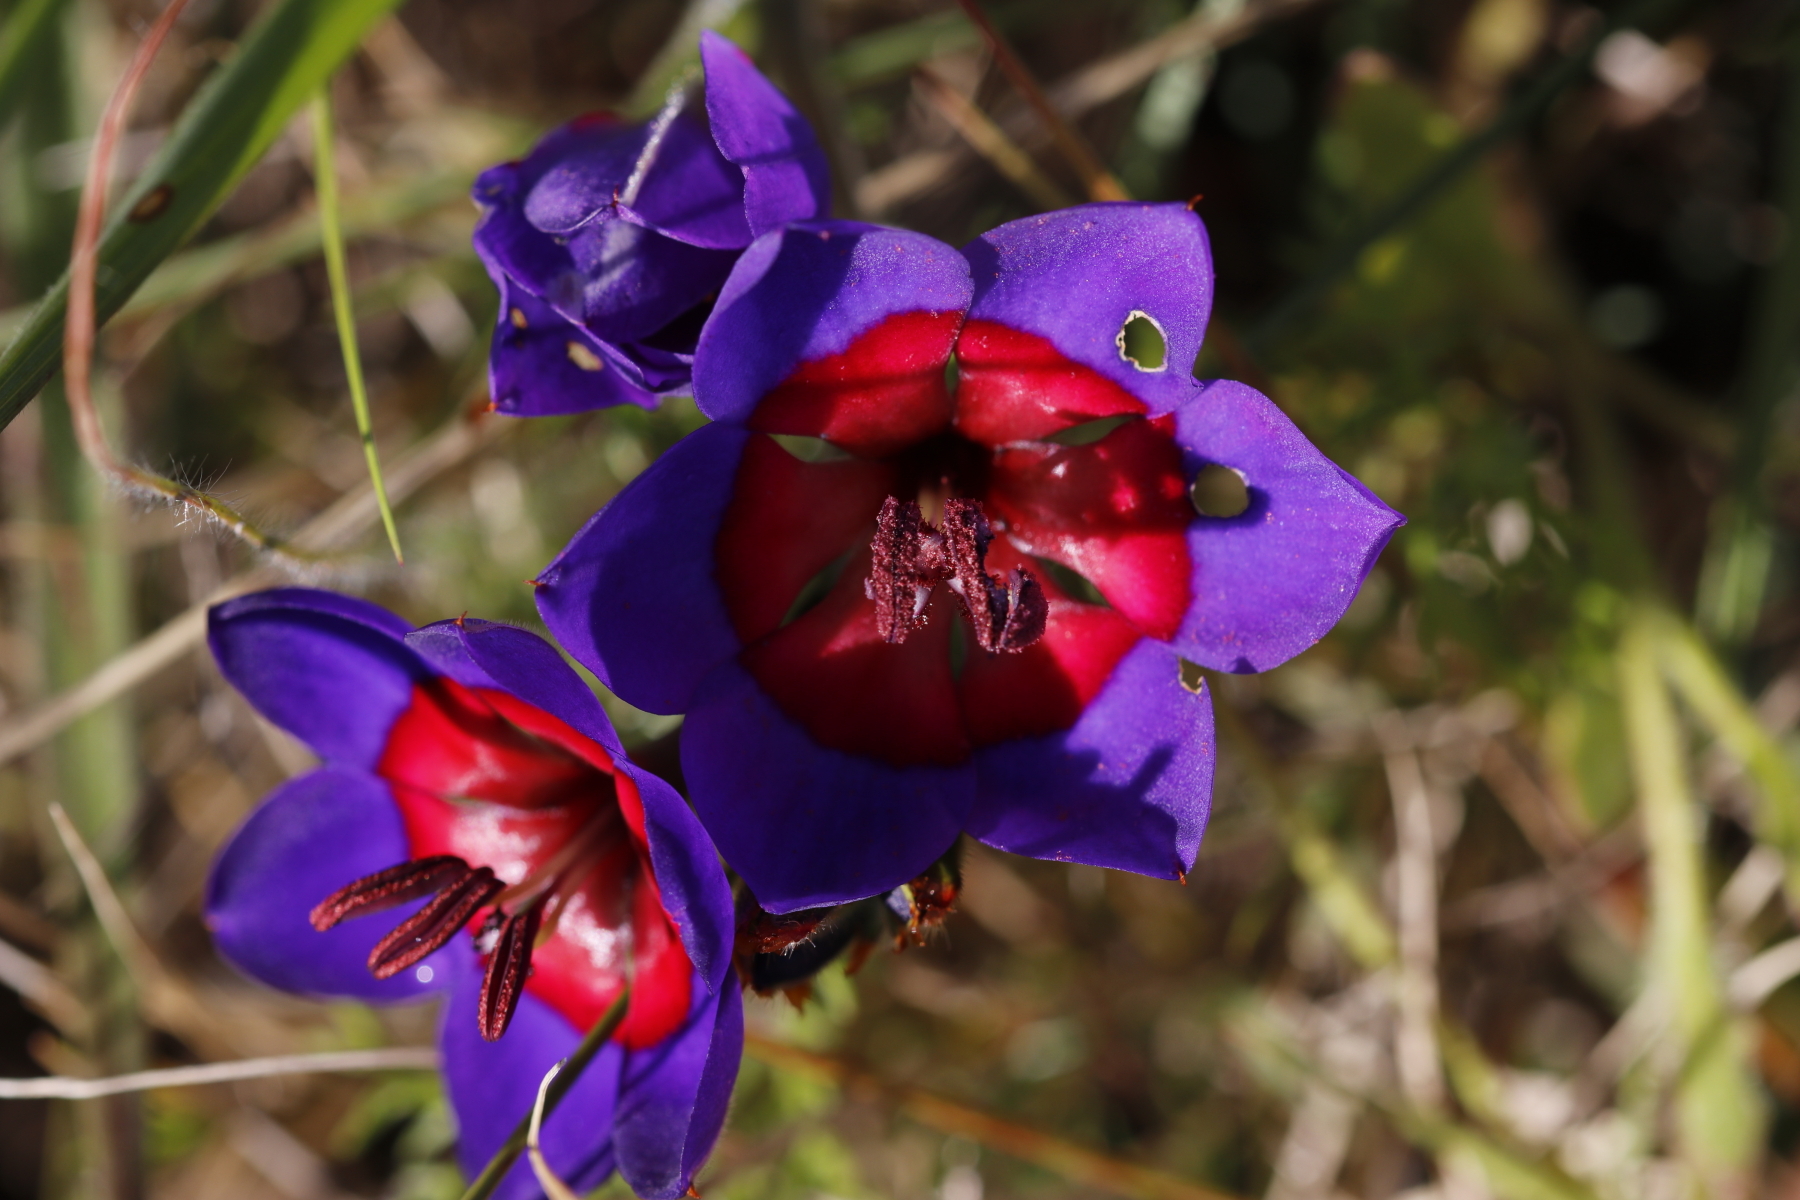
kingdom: Plantae
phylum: Tracheophyta
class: Liliopsida
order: Asparagales
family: Iridaceae
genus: Babiana
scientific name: Babiana rubrocyanea
